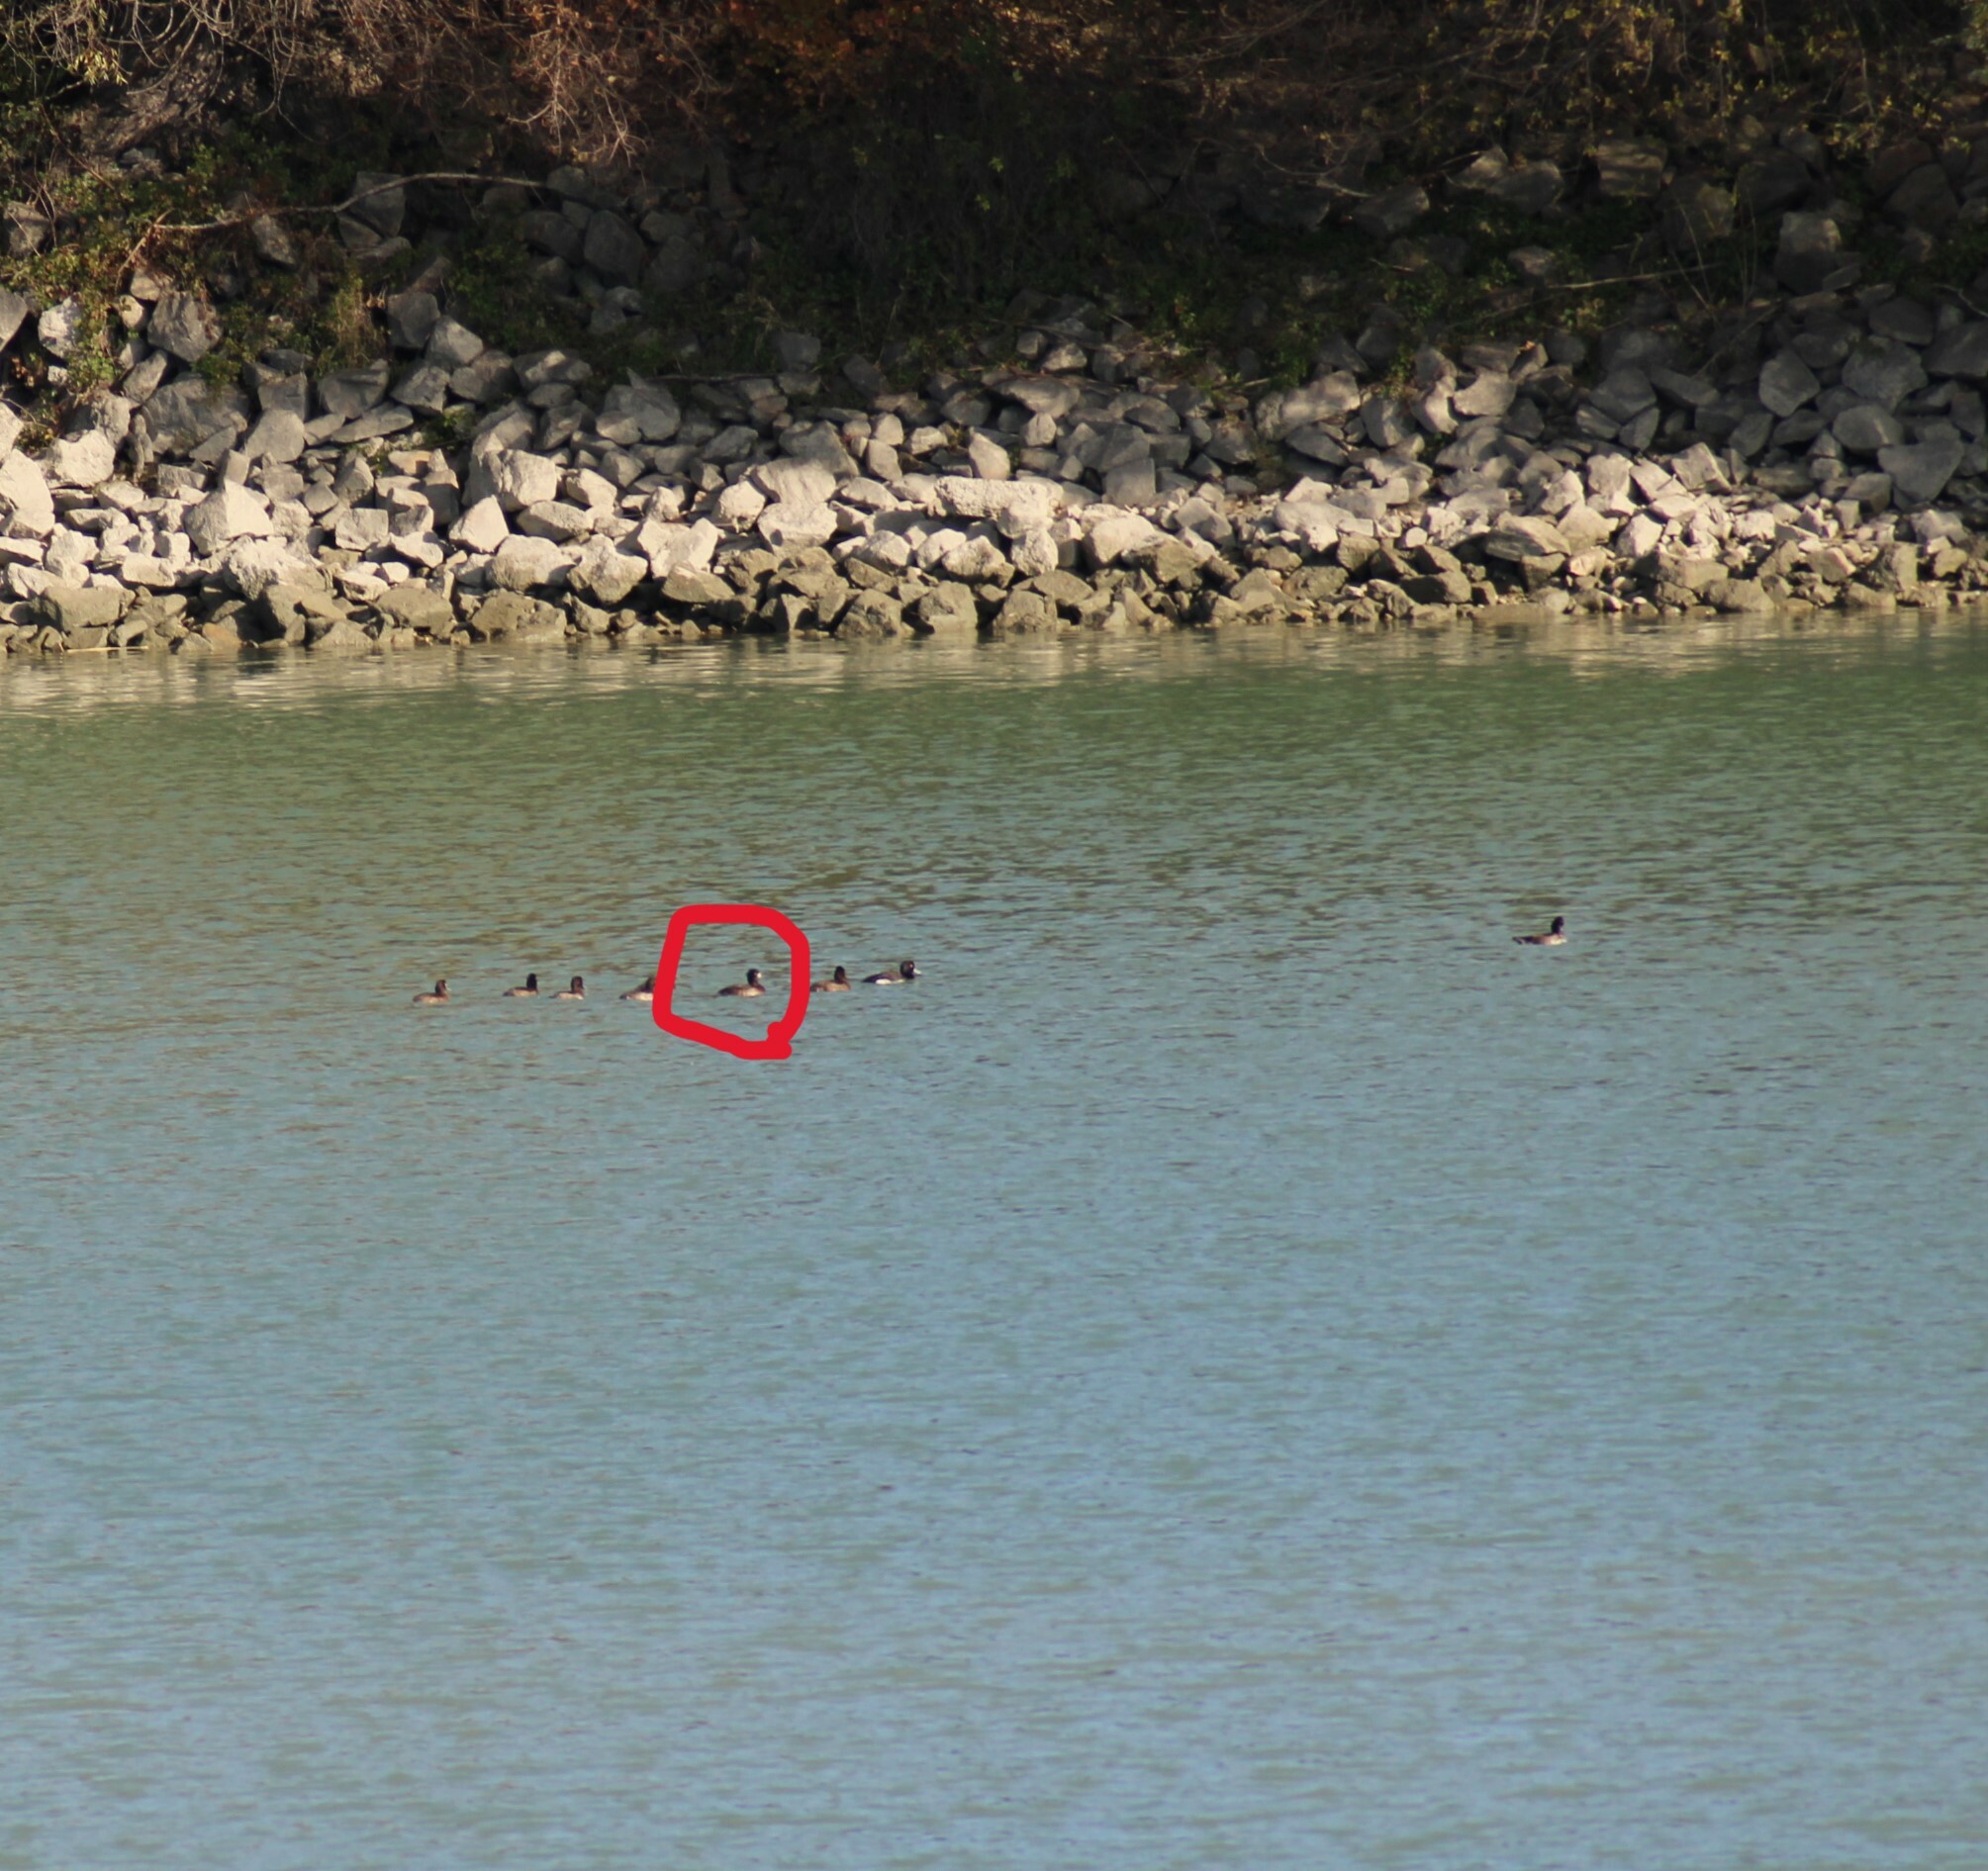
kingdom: Animalia
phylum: Chordata
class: Aves
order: Anseriformes
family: Anatidae
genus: Aythya
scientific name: Aythya marila
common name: Greater scaup
